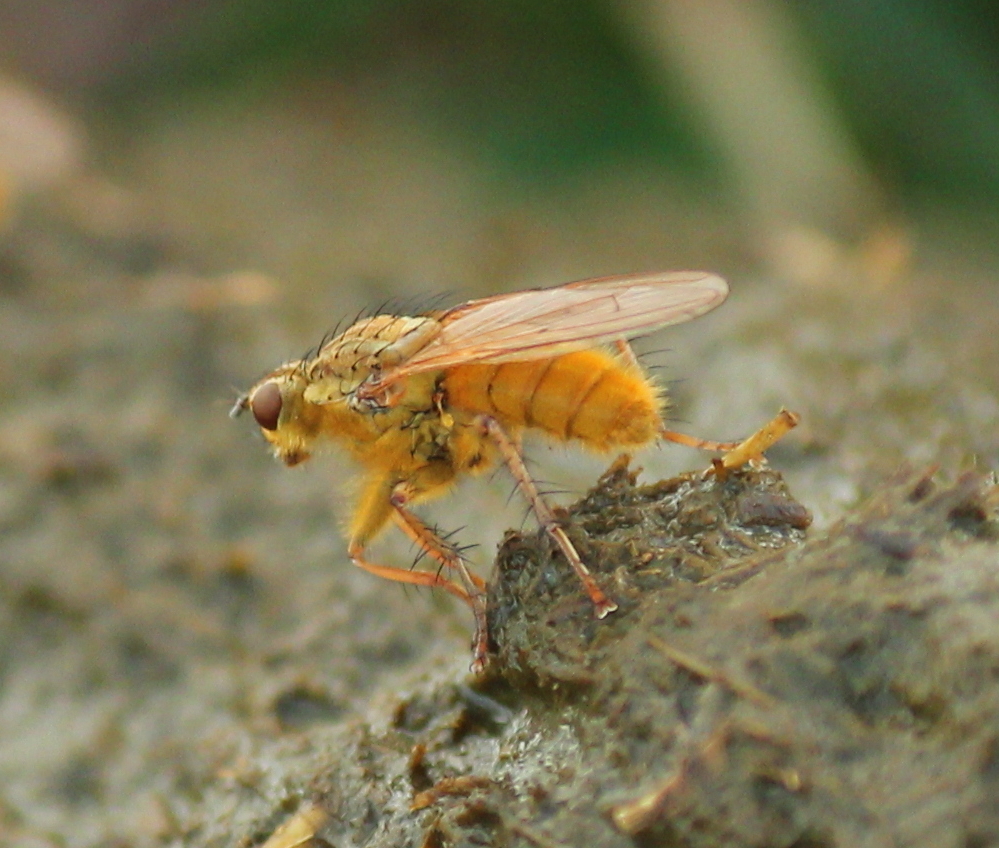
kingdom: Animalia
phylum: Arthropoda
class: Insecta
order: Diptera
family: Scathophagidae
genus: Scathophaga
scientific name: Scathophaga stercoraria
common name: Yellow dung fly
